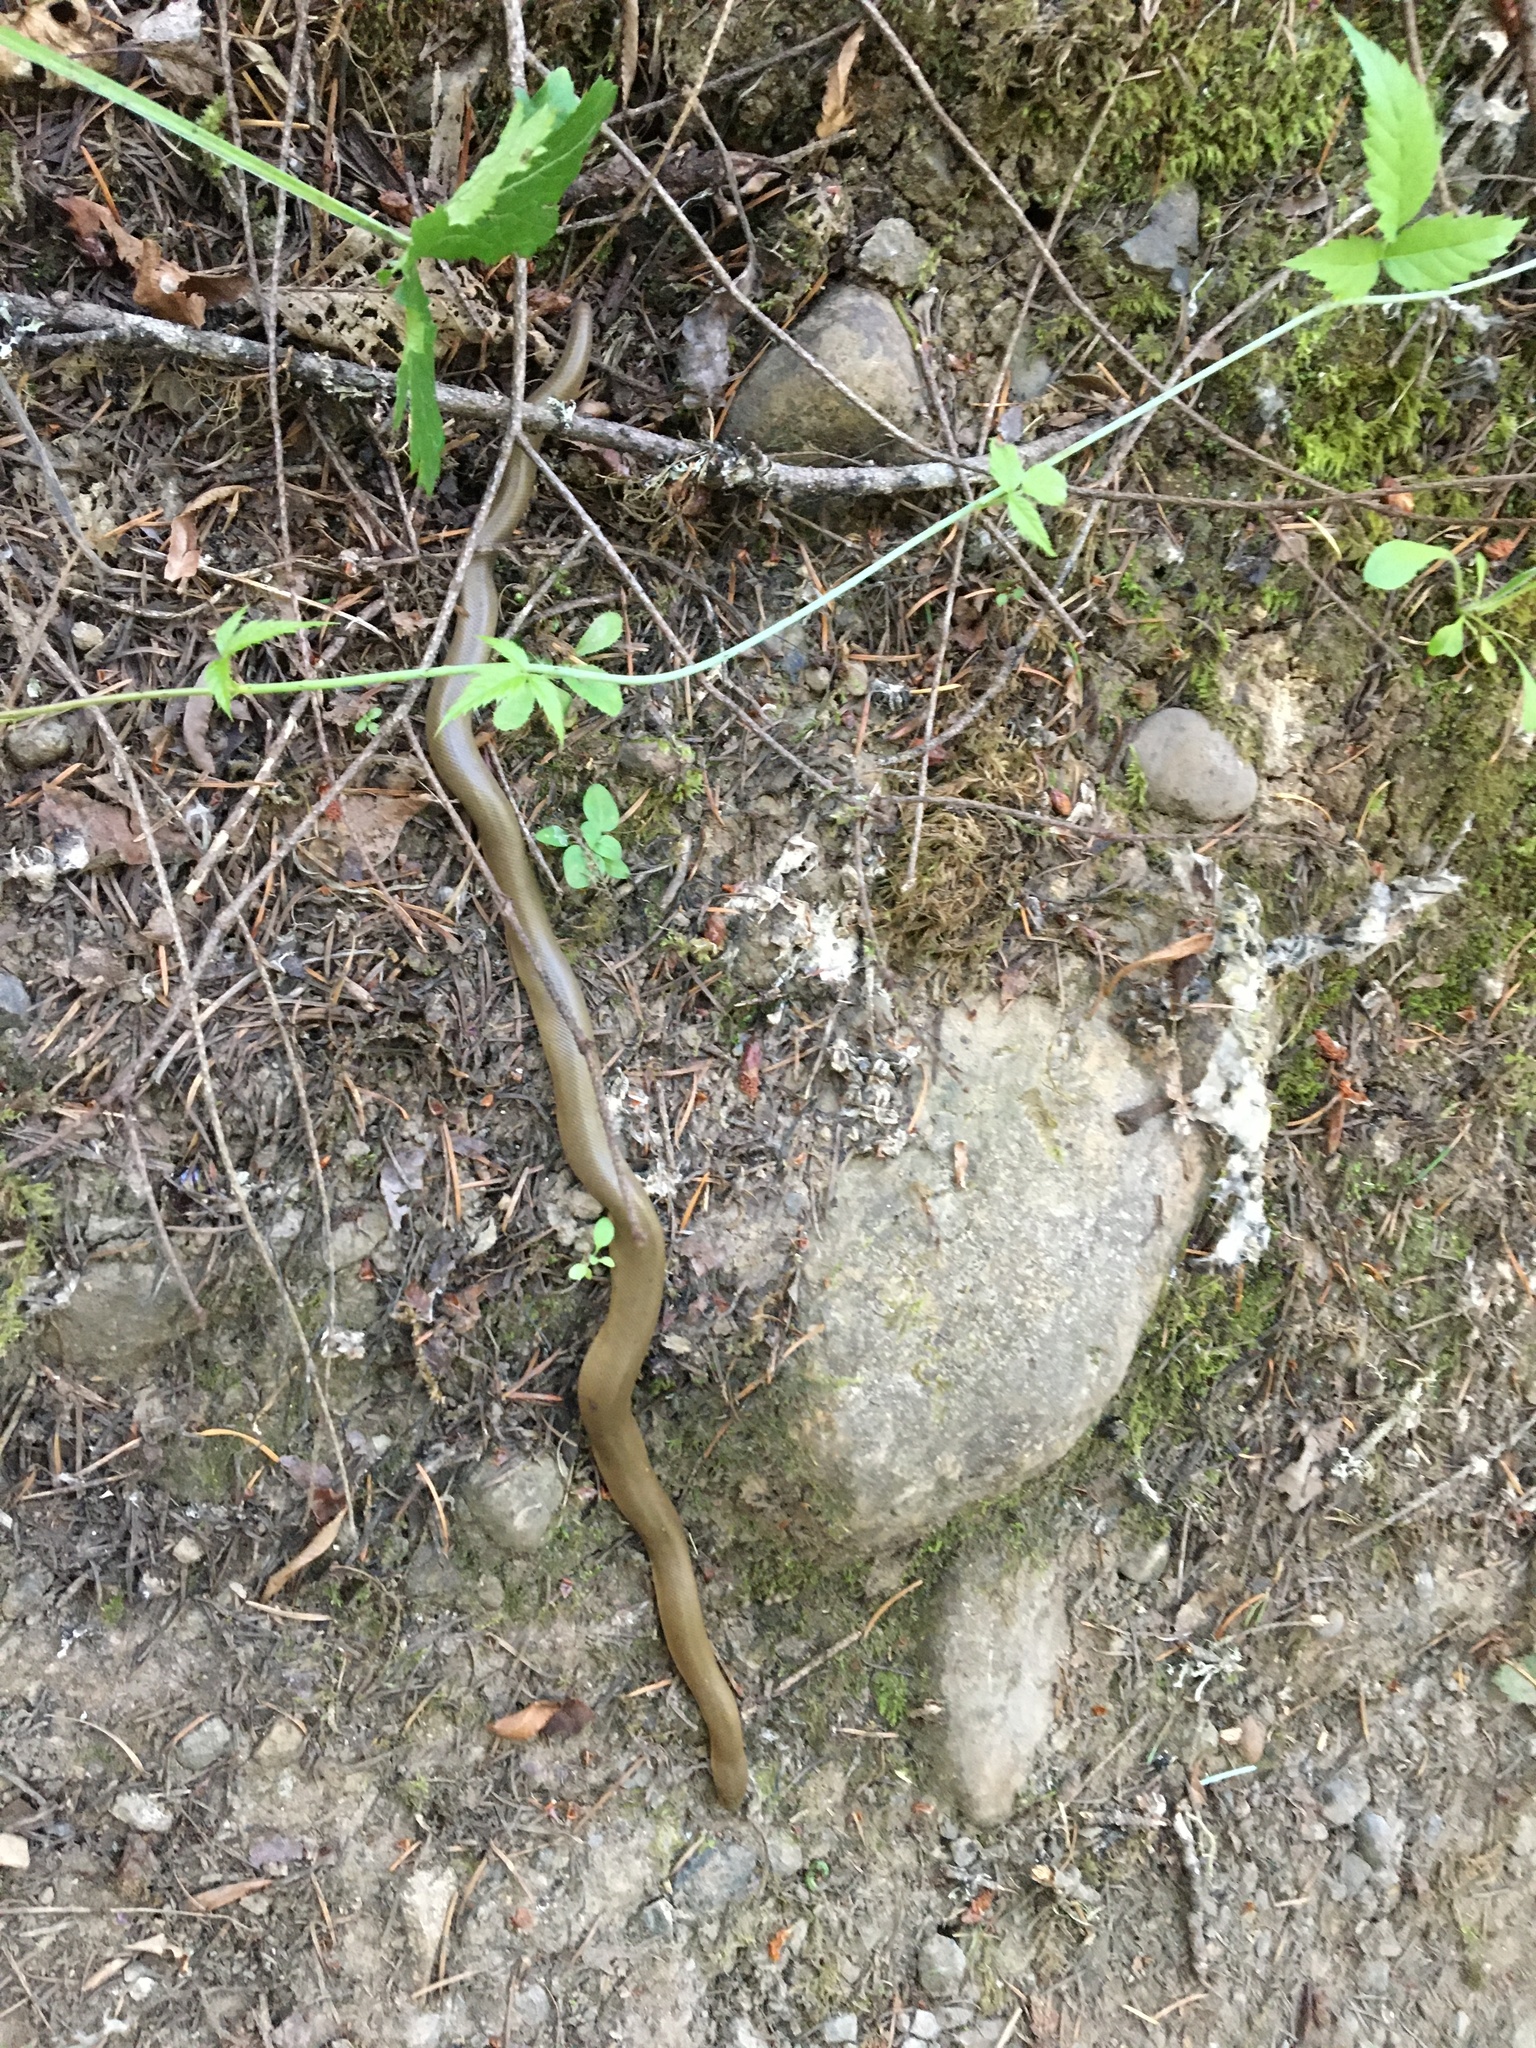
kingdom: Animalia
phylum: Chordata
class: Squamata
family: Boidae
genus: Charina
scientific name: Charina bottae
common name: Northern rubber boa
